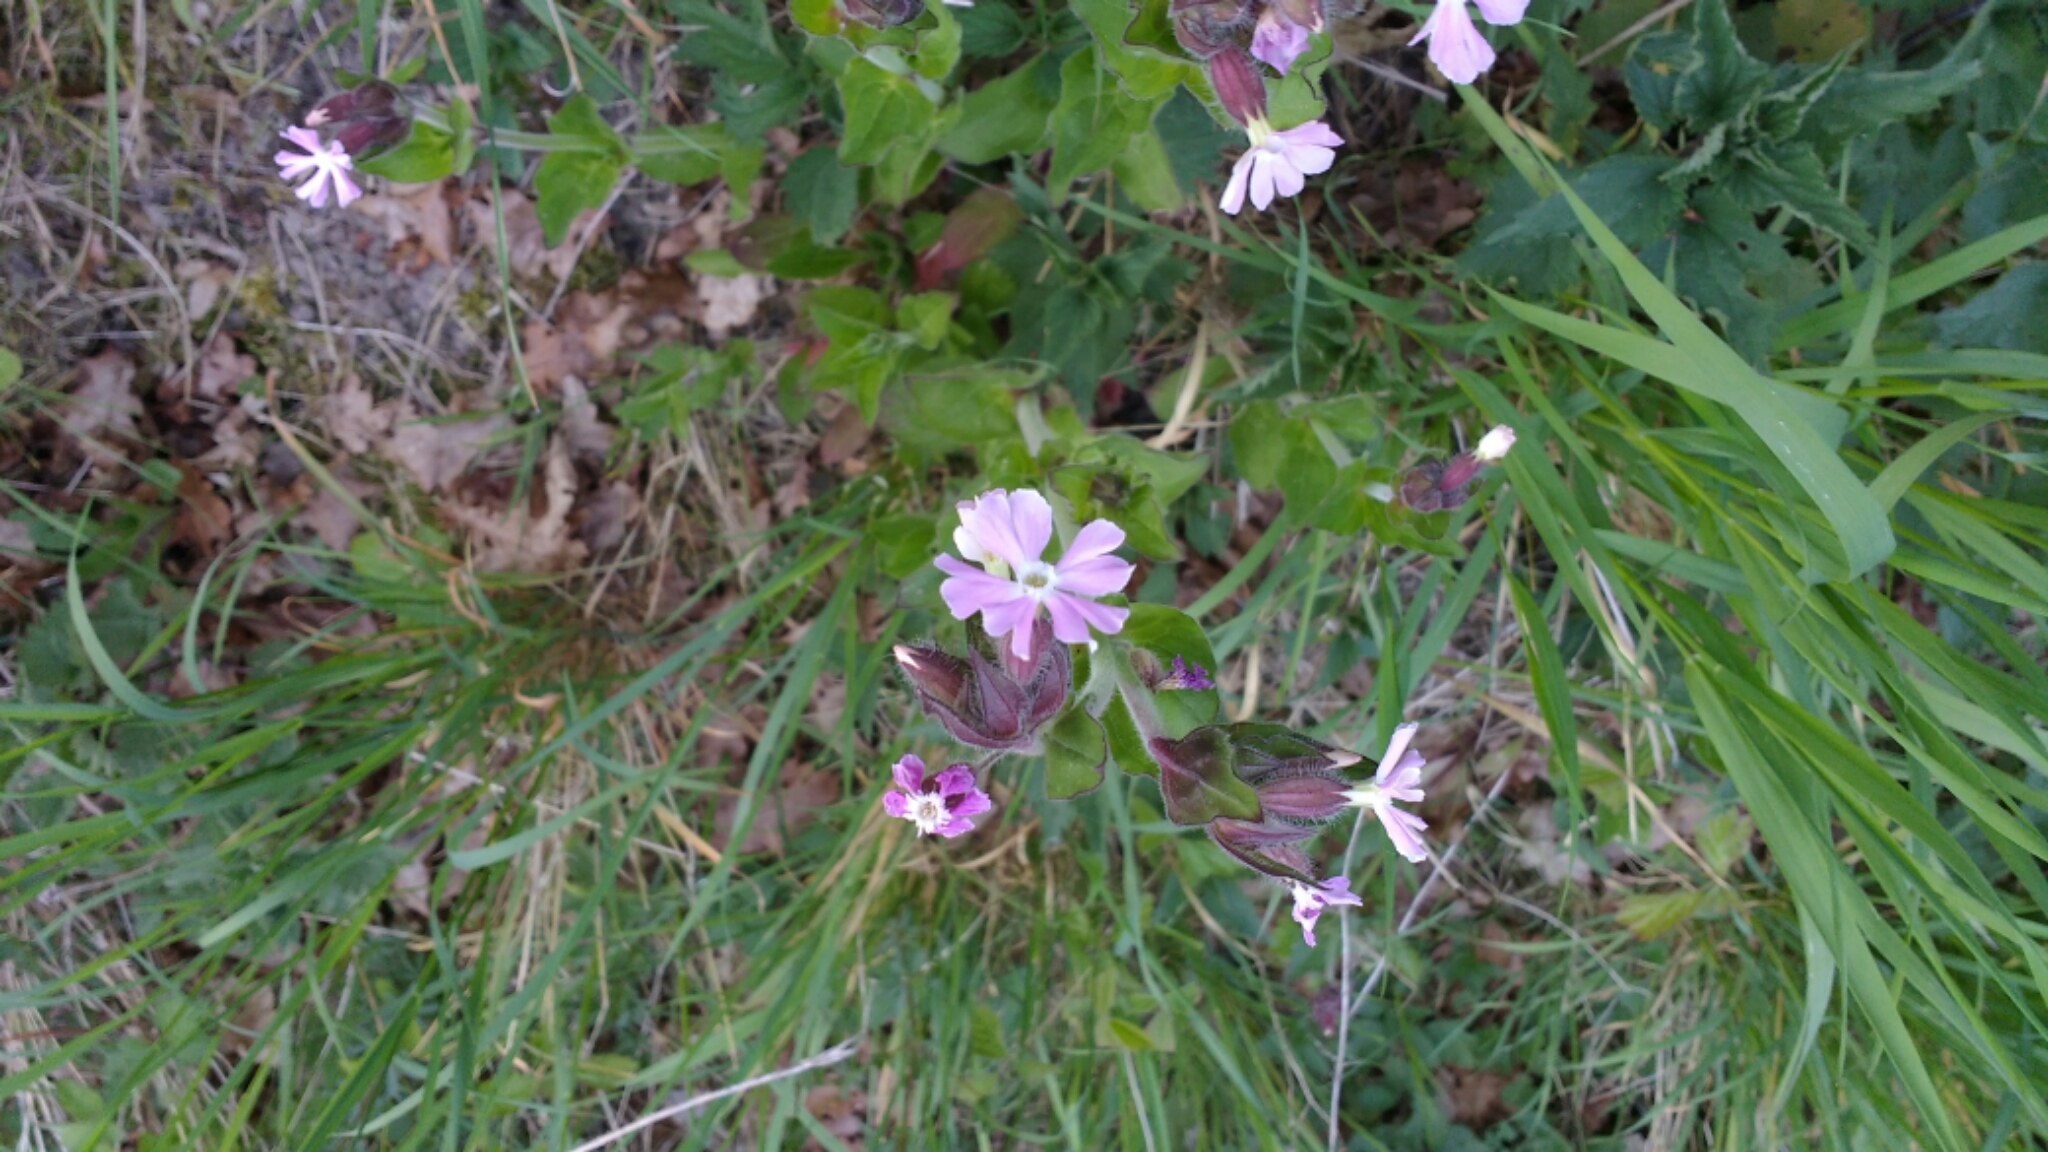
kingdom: Plantae
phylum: Tracheophyta
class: Magnoliopsida
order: Caryophyllales
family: Caryophyllaceae
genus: Silene
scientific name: Silene dioica
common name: Red campion
